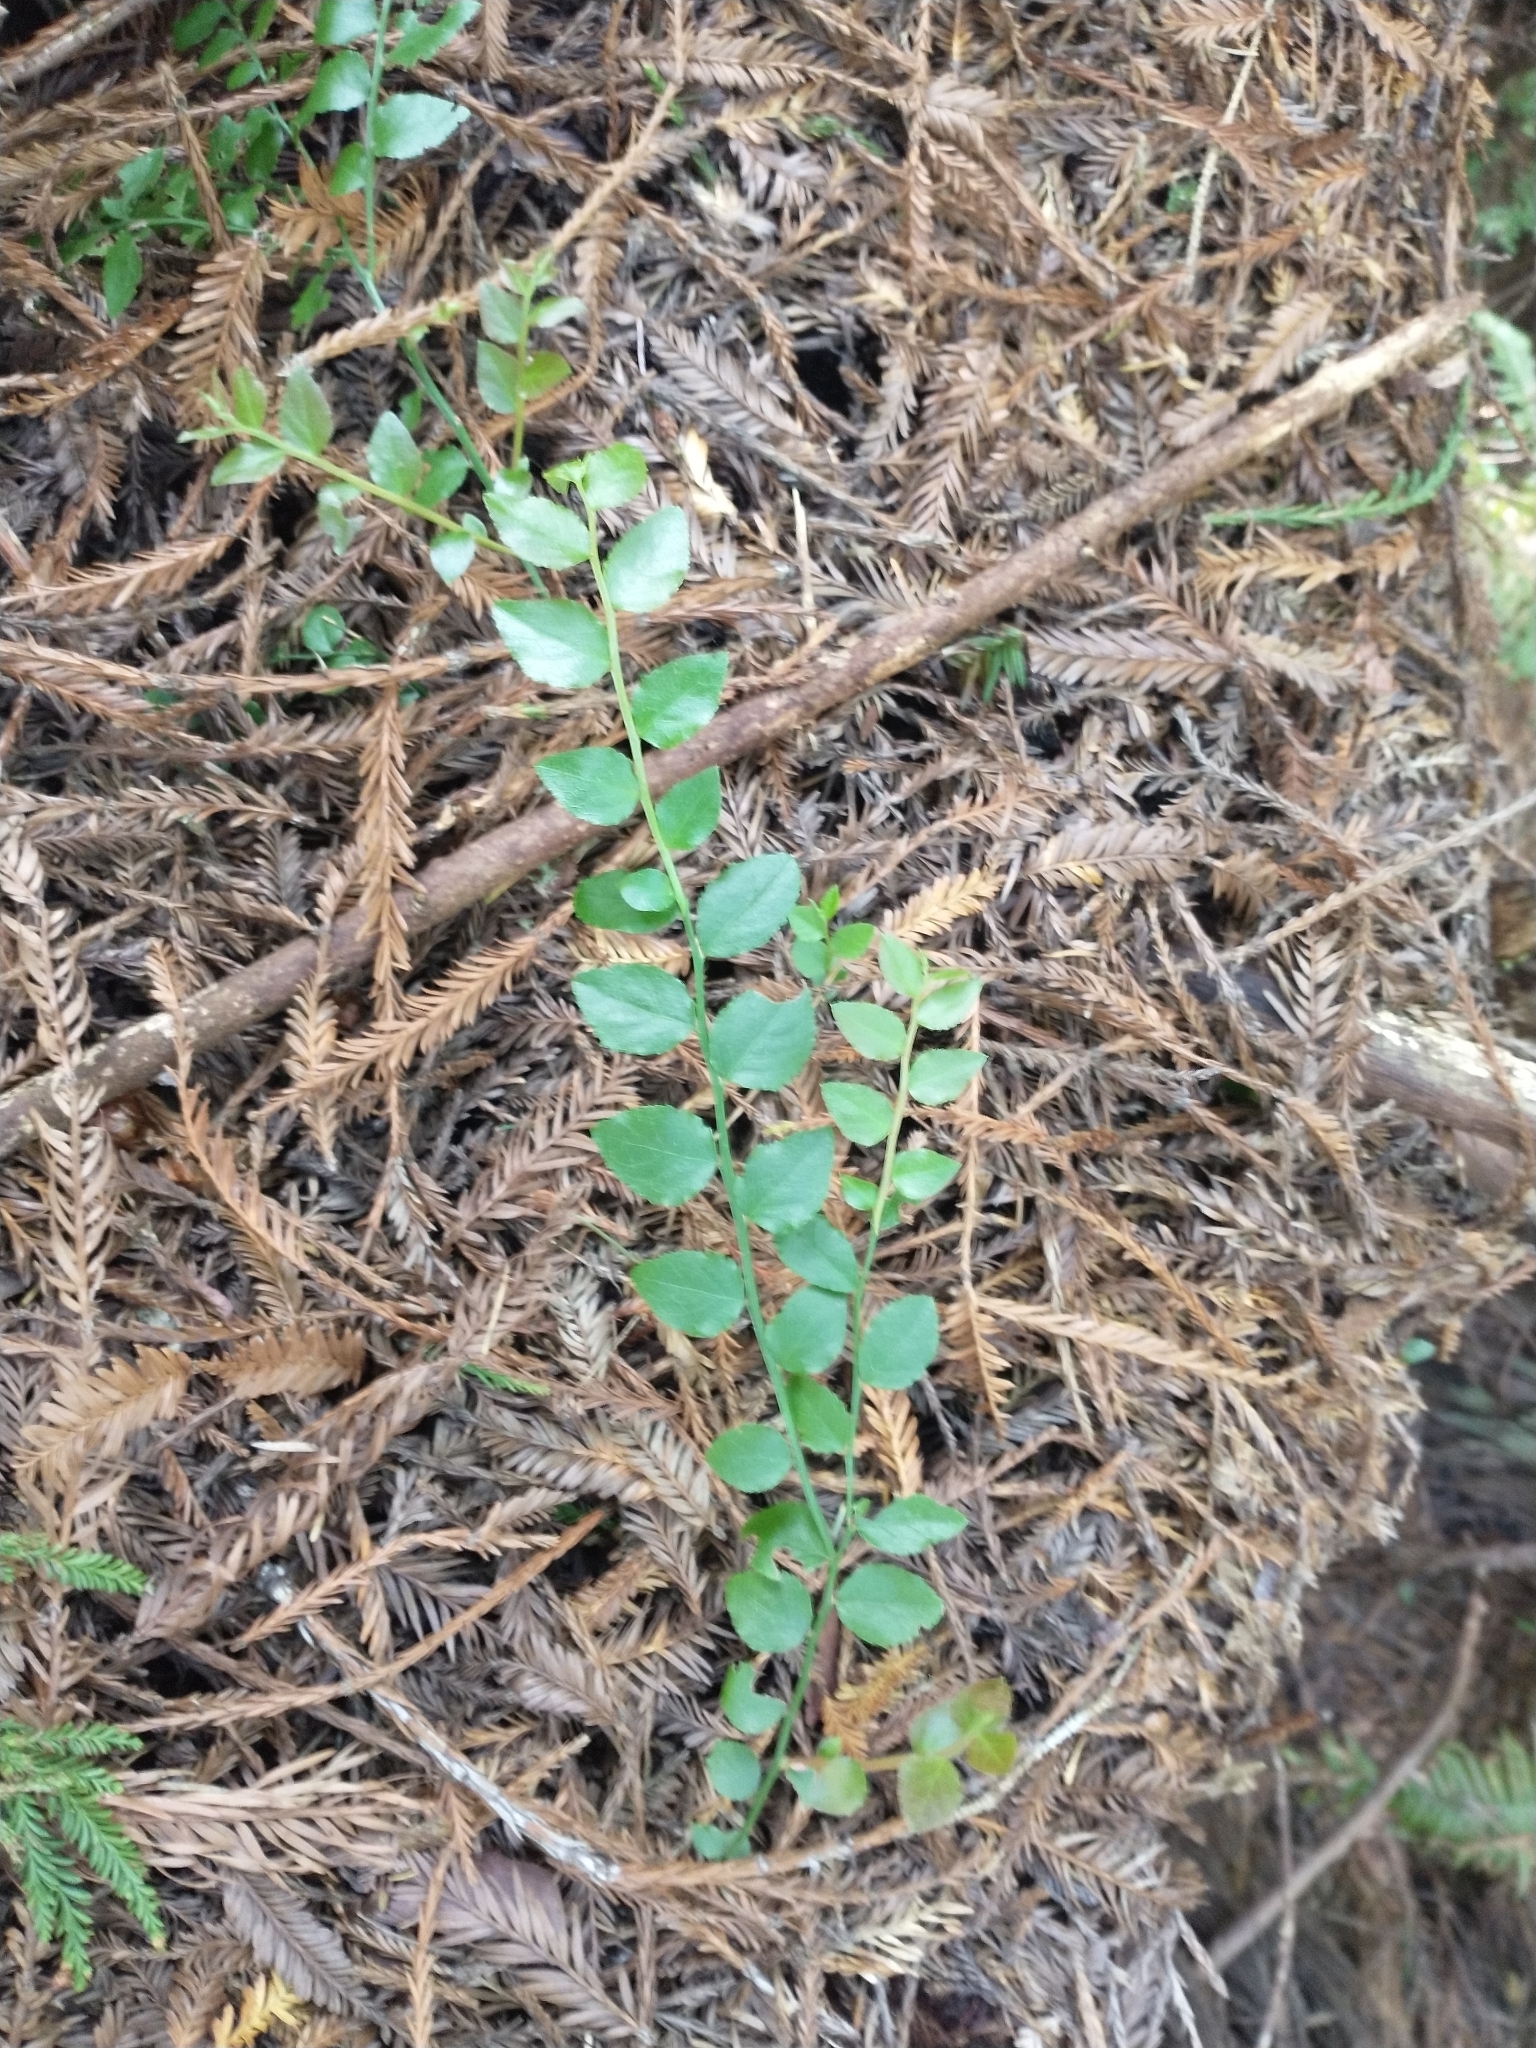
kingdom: Plantae
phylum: Tracheophyta
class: Magnoliopsida
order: Ericales
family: Ericaceae
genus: Vaccinium
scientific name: Vaccinium parvifolium
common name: Red-huckleberry
